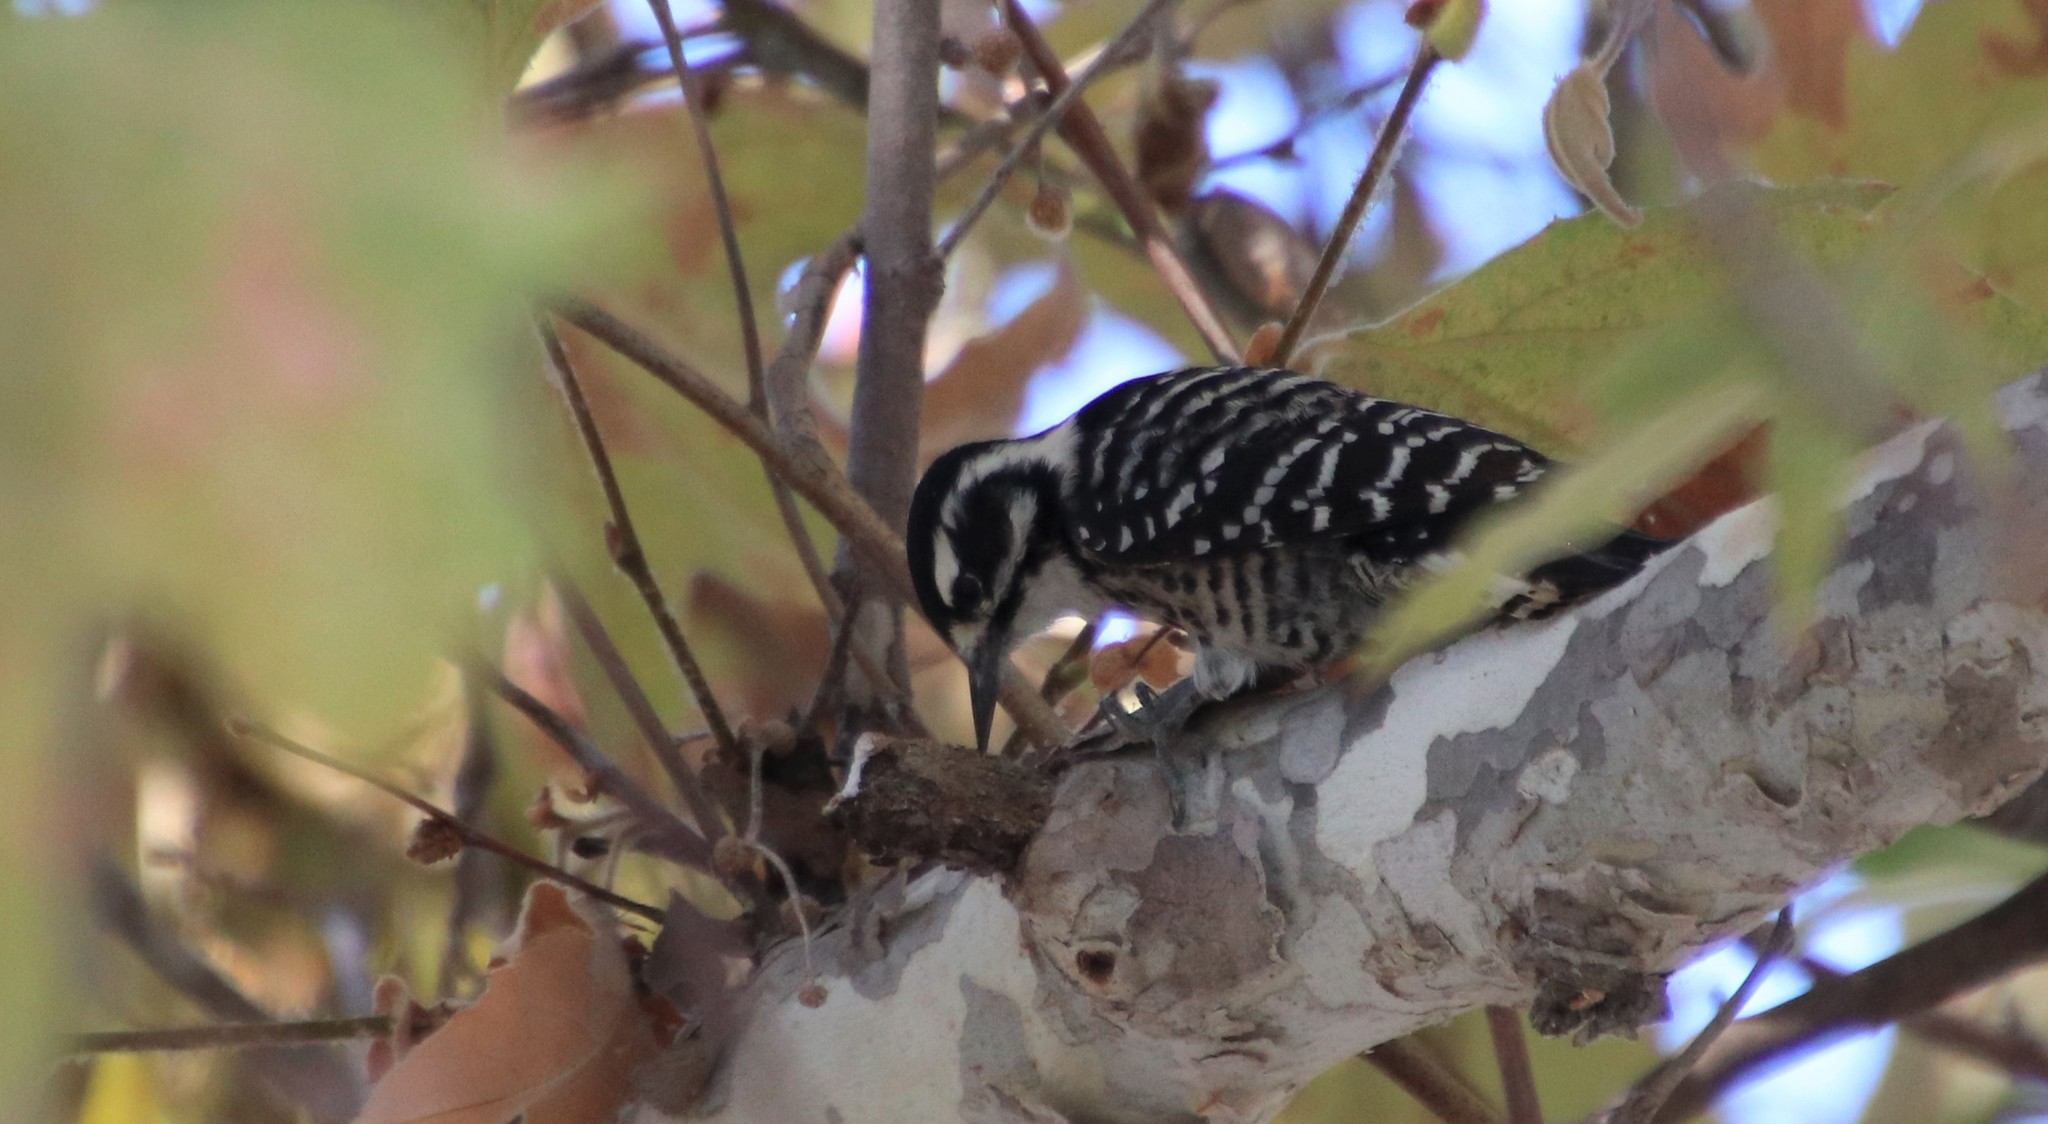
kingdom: Animalia
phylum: Chordata
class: Aves
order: Piciformes
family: Picidae
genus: Dryobates
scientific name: Dryobates nuttallii
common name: Nuttall's woodpecker
